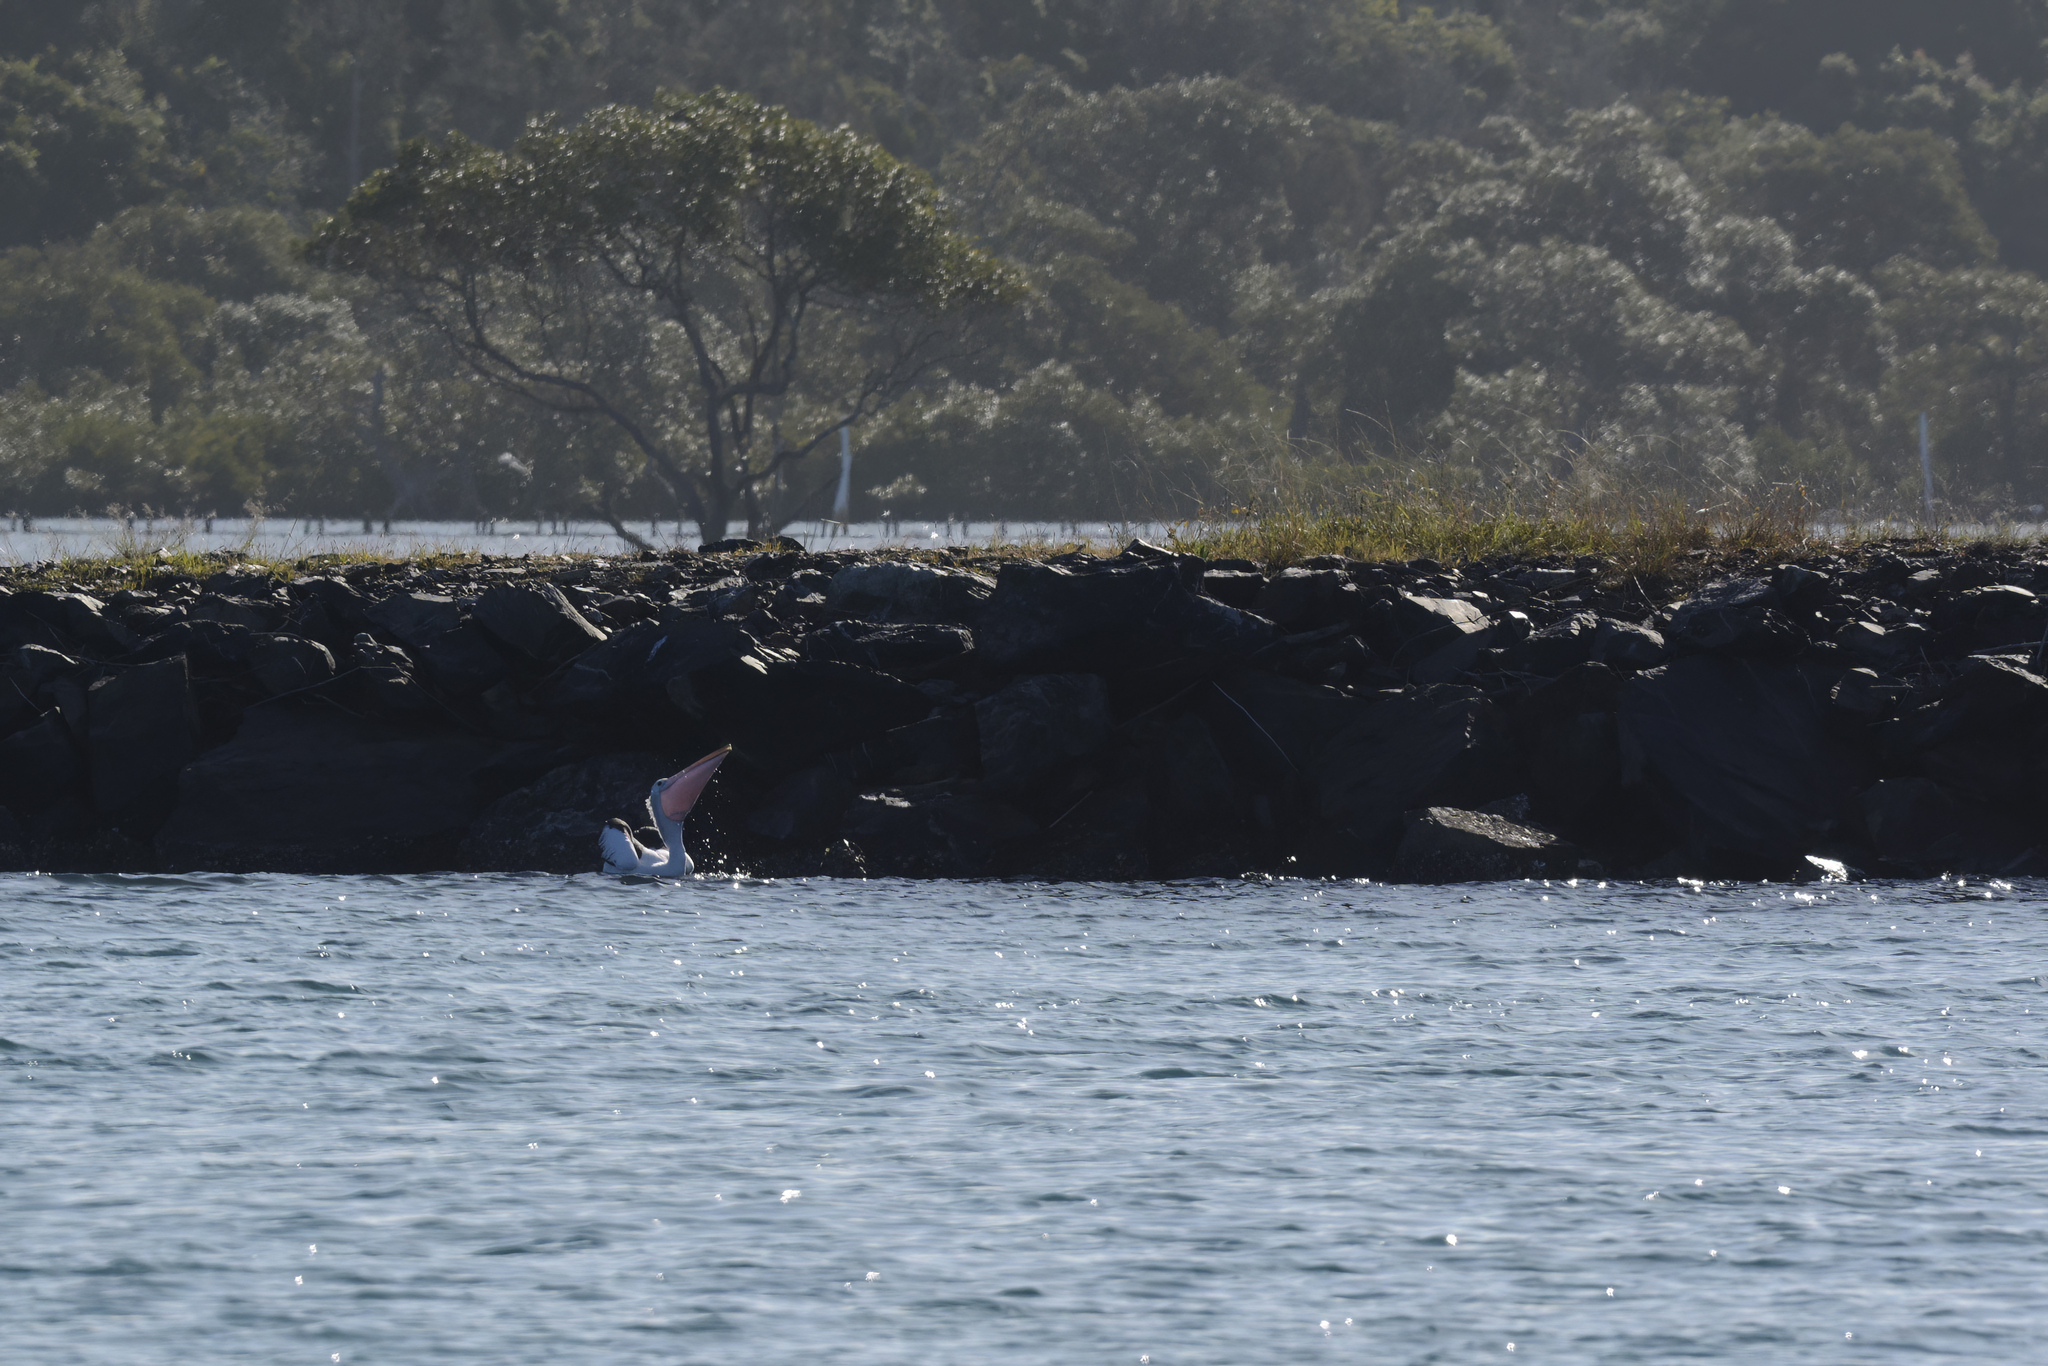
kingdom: Animalia
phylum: Chordata
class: Aves
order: Pelecaniformes
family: Pelecanidae
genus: Pelecanus
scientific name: Pelecanus conspicillatus
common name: Australian pelican
